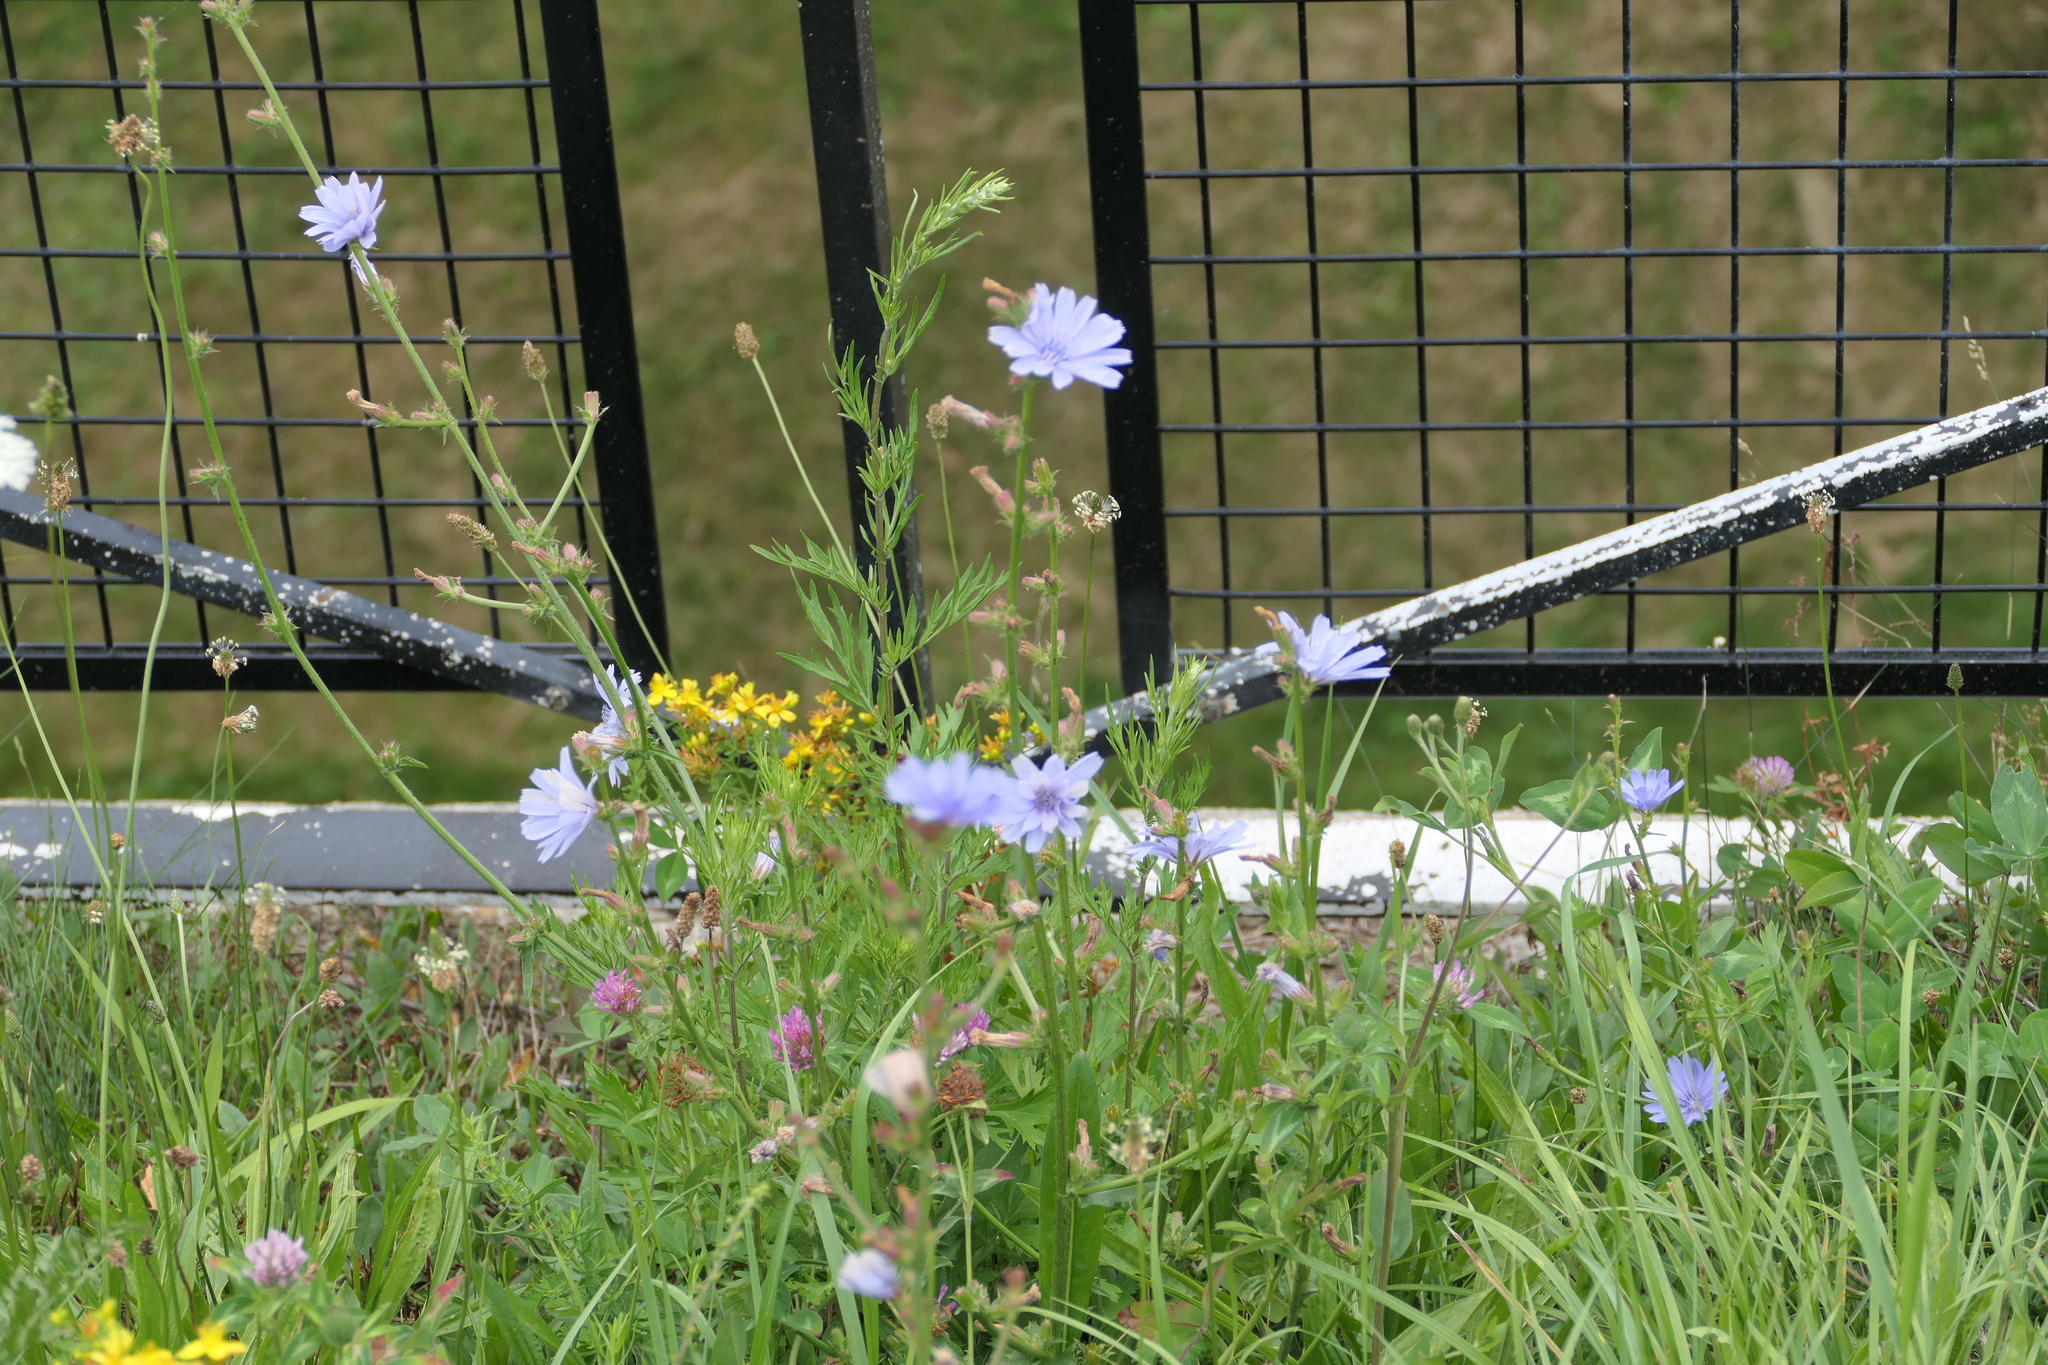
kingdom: Plantae
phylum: Tracheophyta
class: Magnoliopsida
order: Asterales
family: Asteraceae
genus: Cichorium
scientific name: Cichorium intybus
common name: Chicory
